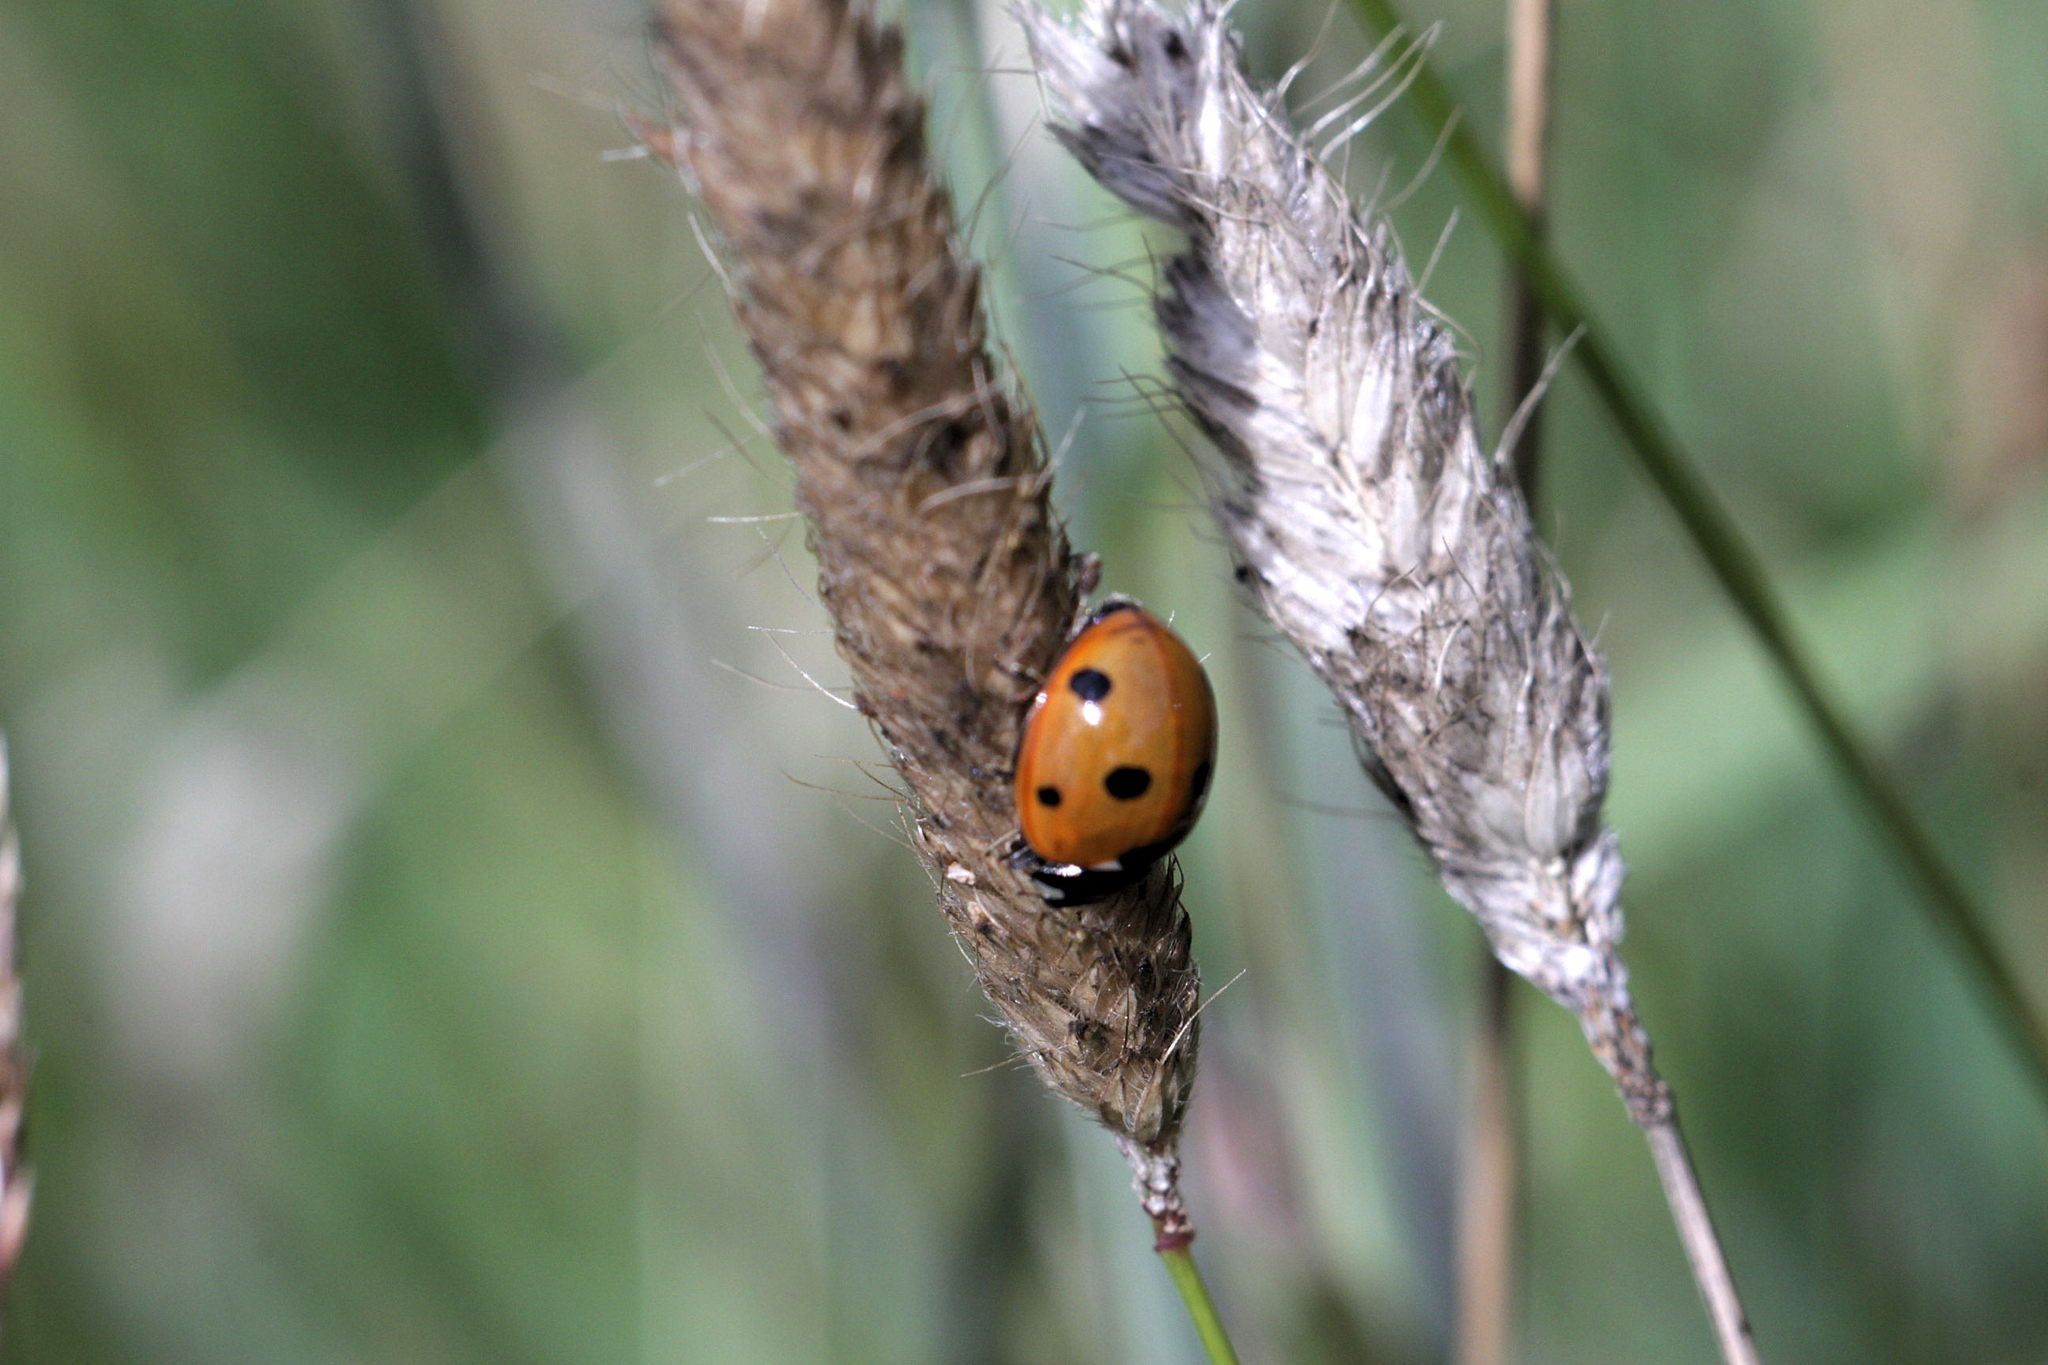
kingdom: Animalia
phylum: Arthropoda
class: Insecta
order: Coleoptera
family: Coccinellidae
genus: Coccinella
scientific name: Coccinella septempunctata
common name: Sevenspotted lady beetle
